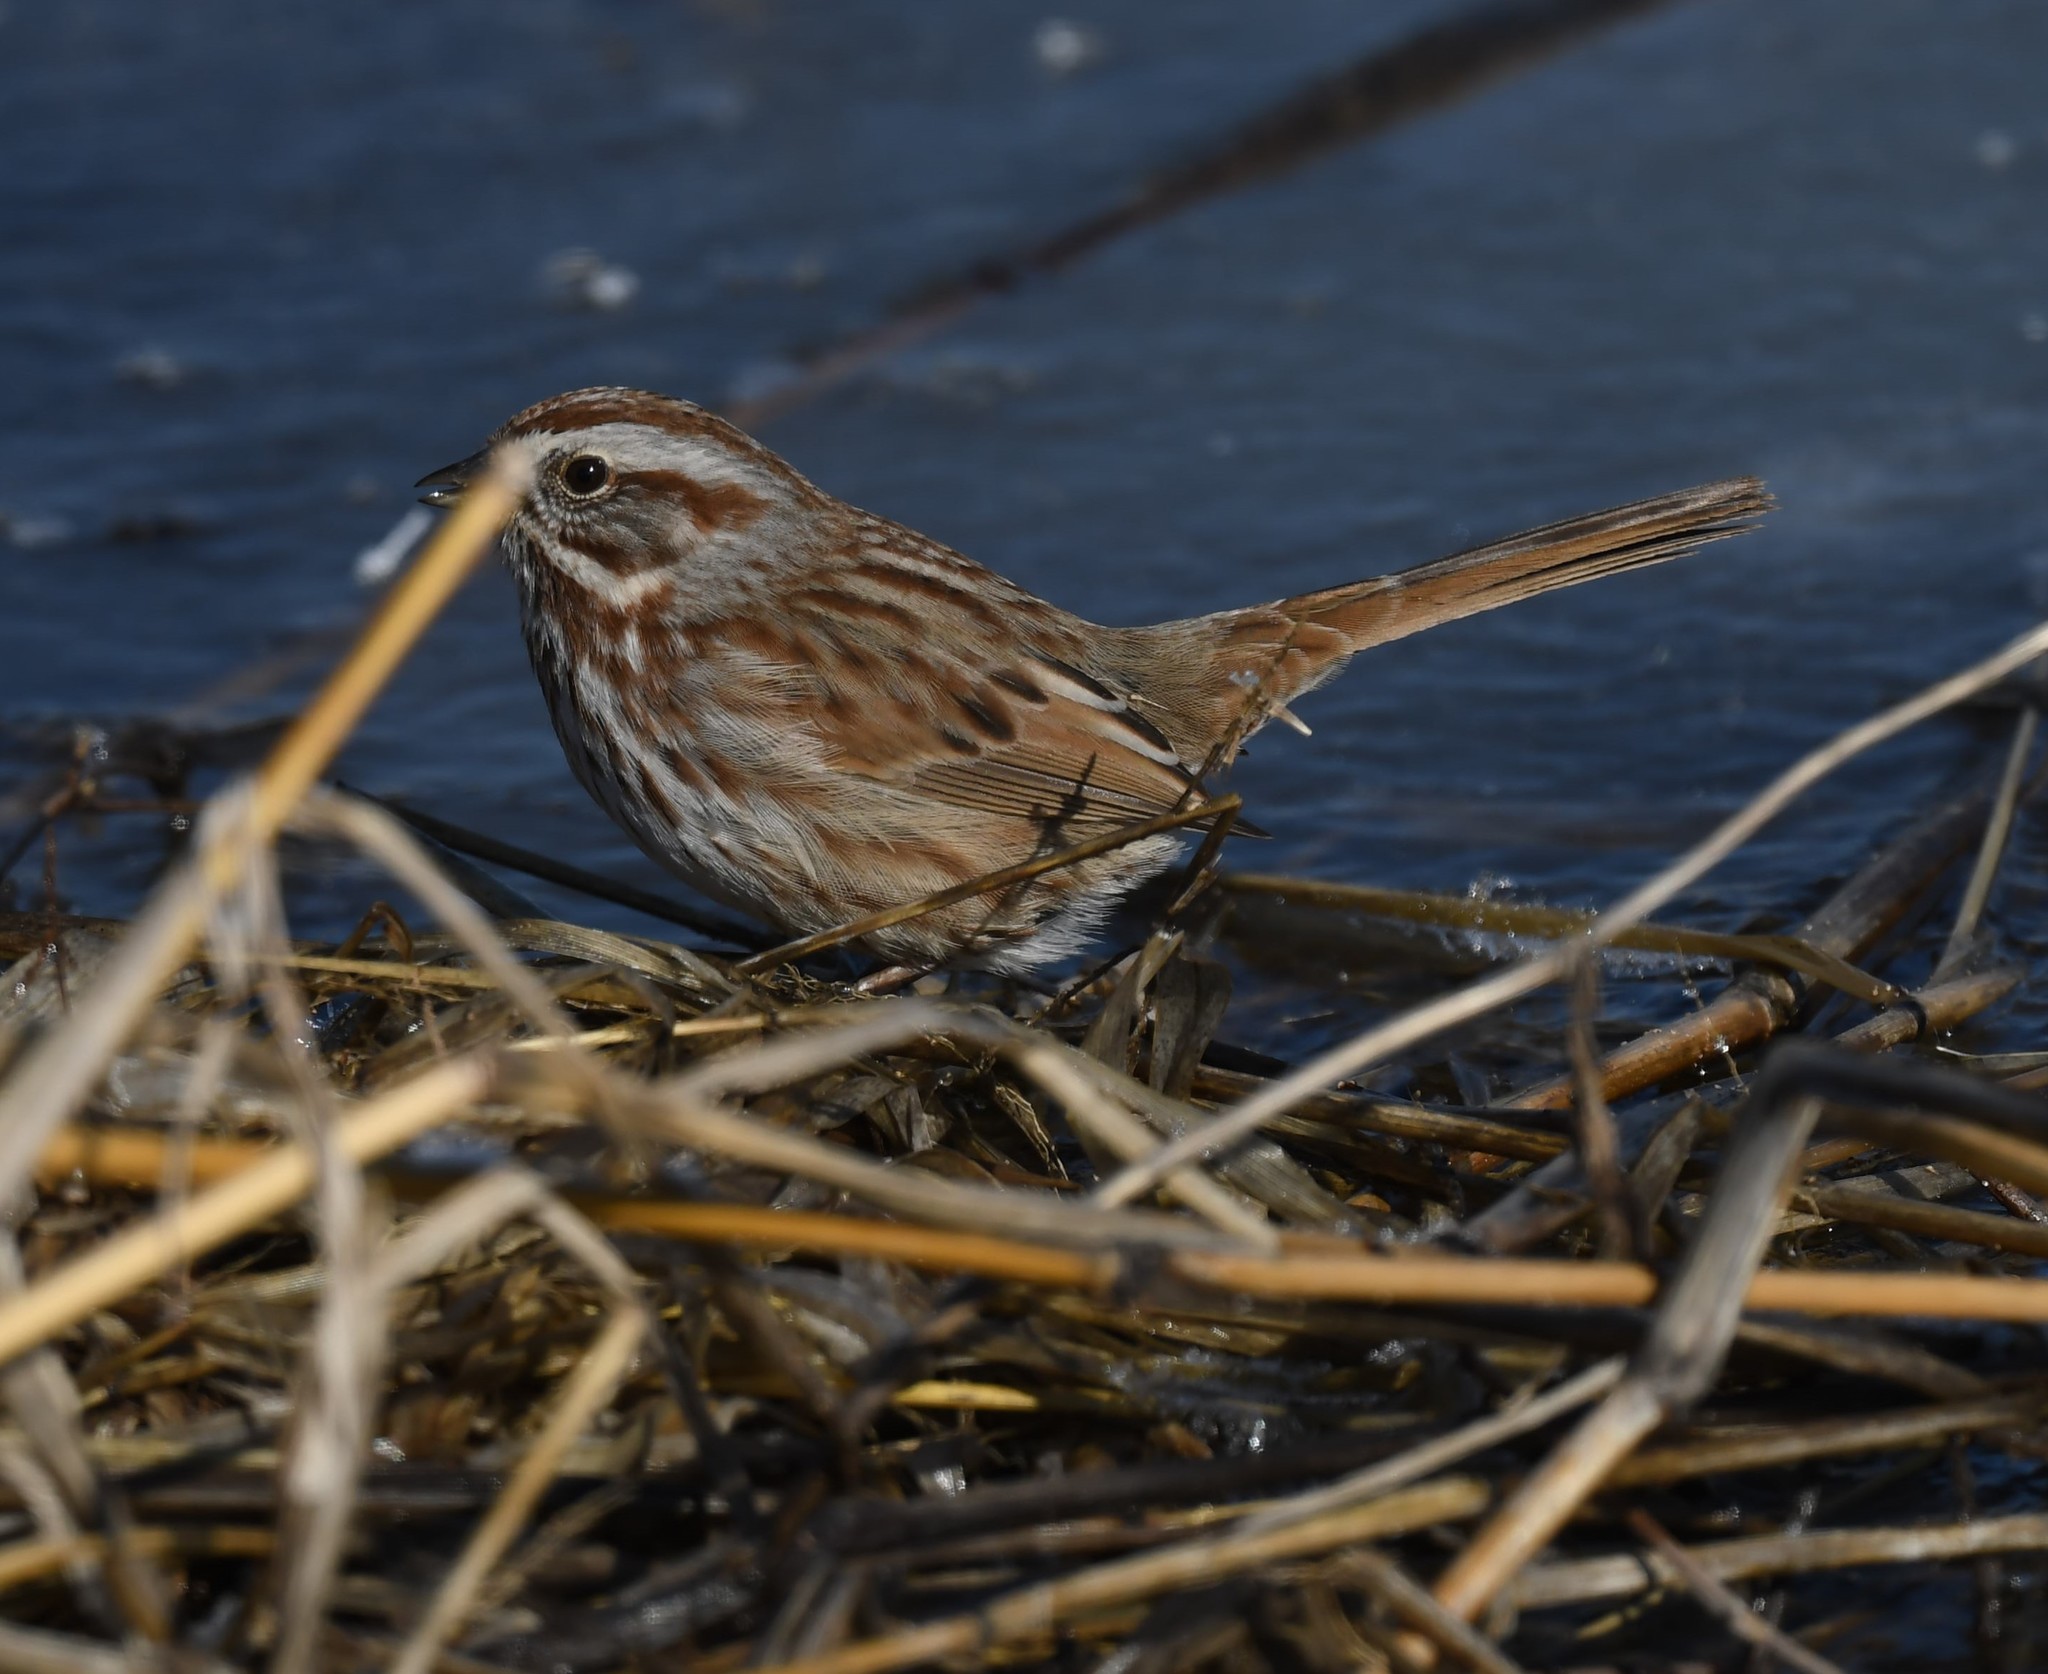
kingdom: Animalia
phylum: Chordata
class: Aves
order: Passeriformes
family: Passerellidae
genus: Melospiza
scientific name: Melospiza melodia
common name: Song sparrow
